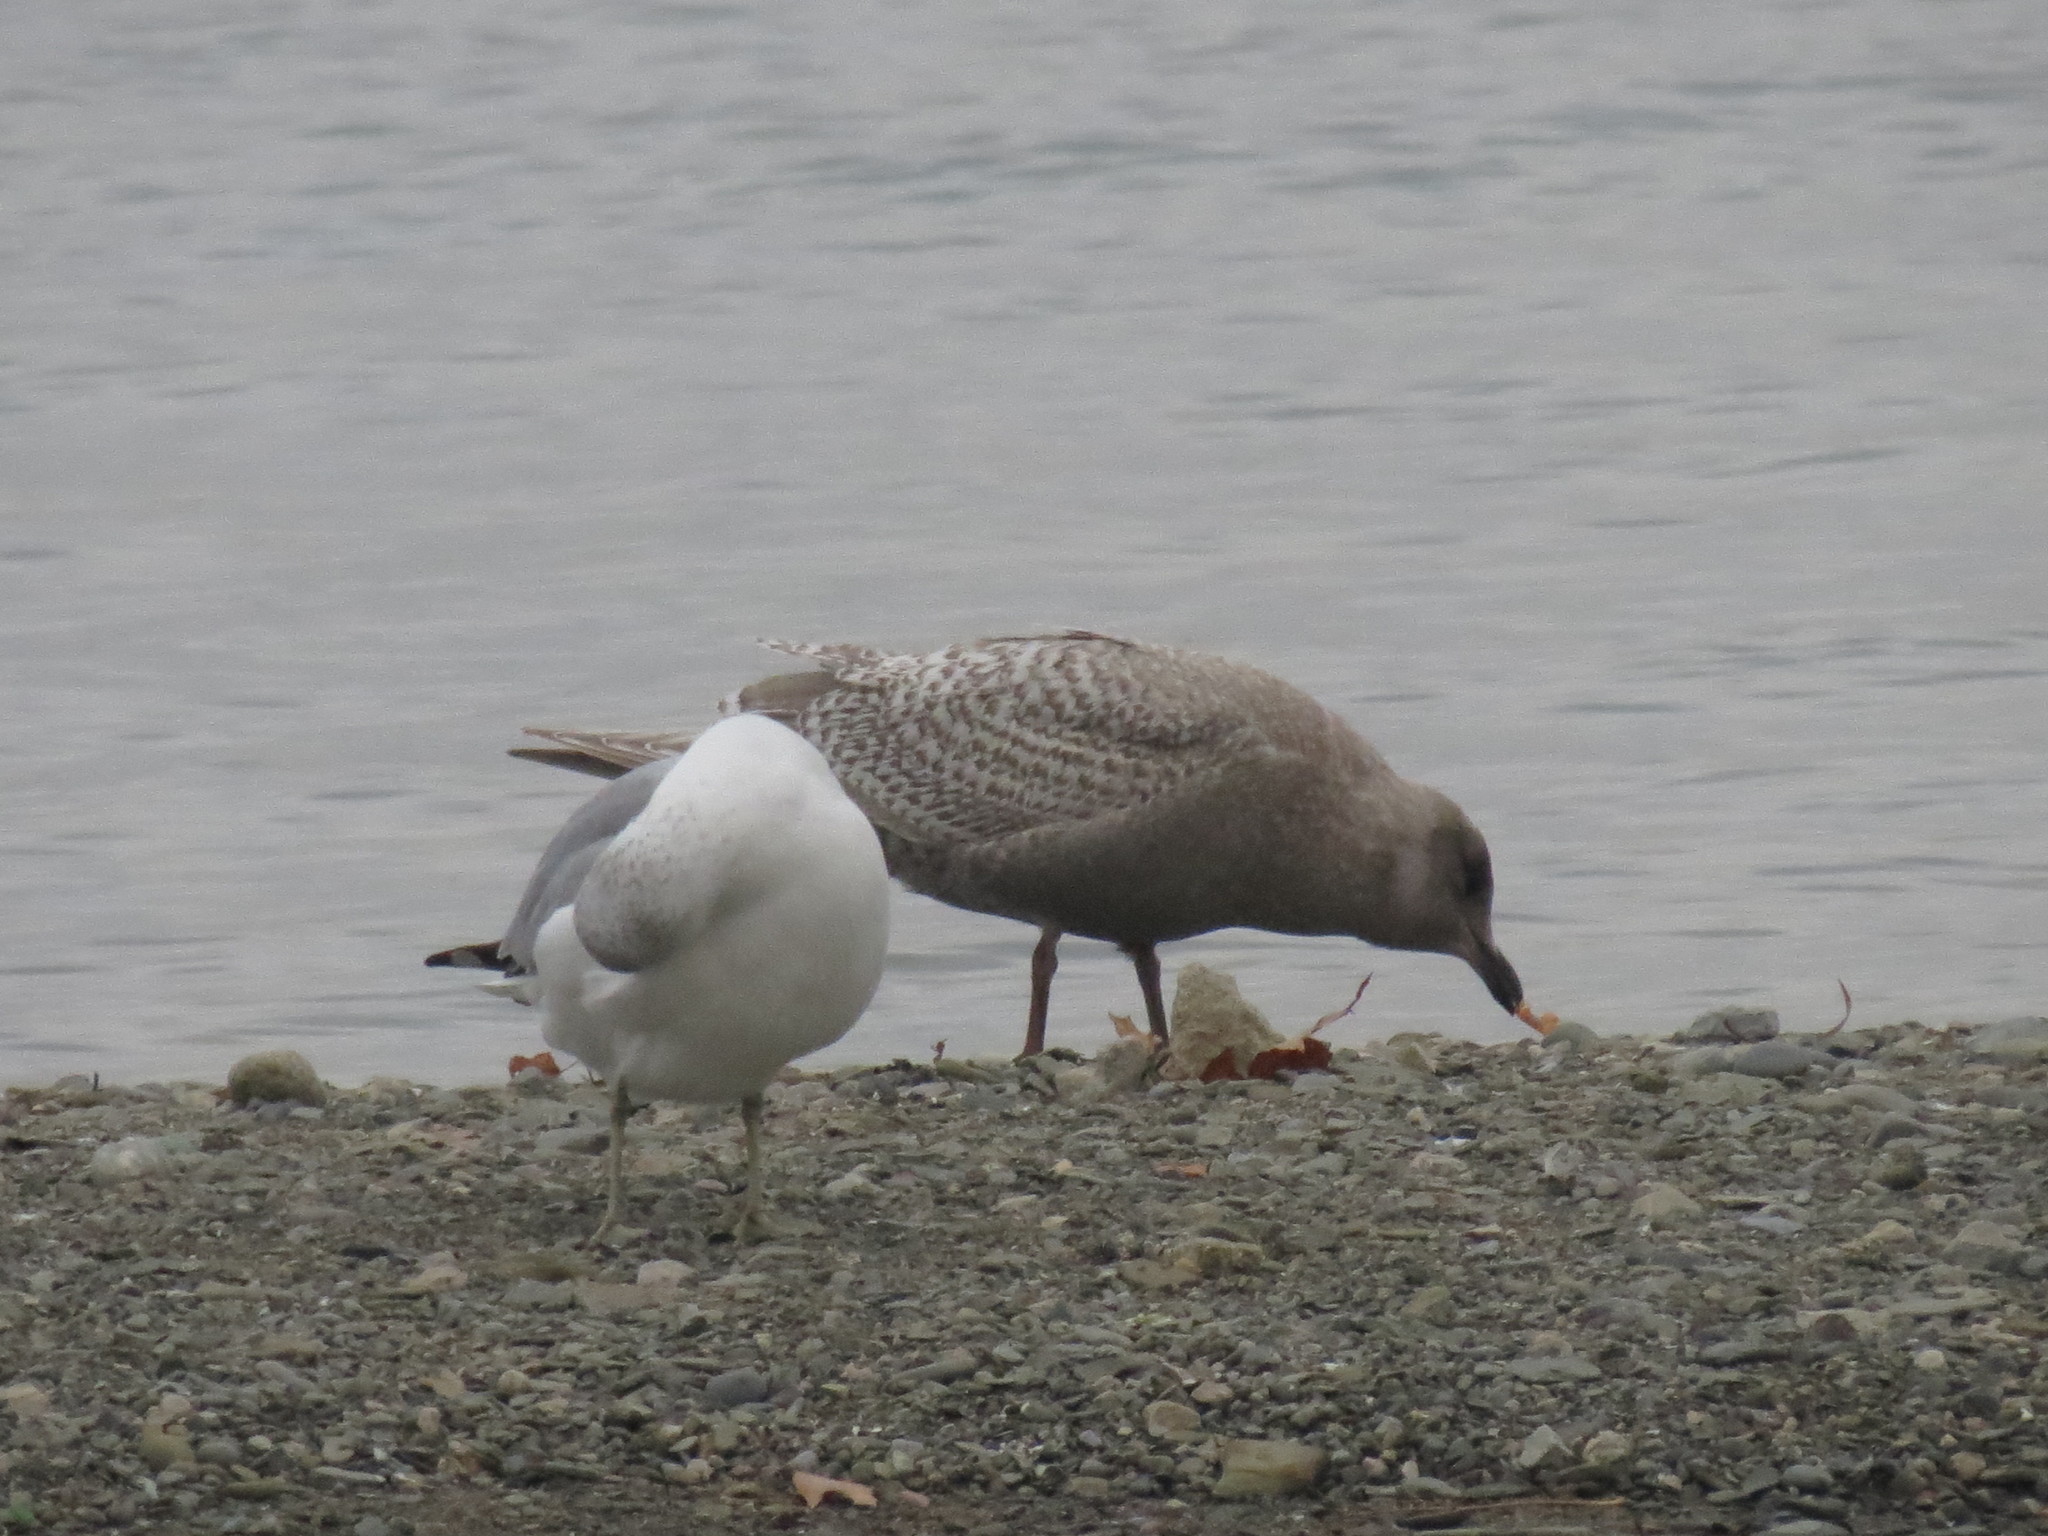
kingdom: Animalia
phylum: Chordata
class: Aves
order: Charadriiformes
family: Laridae
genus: Larus
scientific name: Larus glaucoides
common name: Iceland gull
